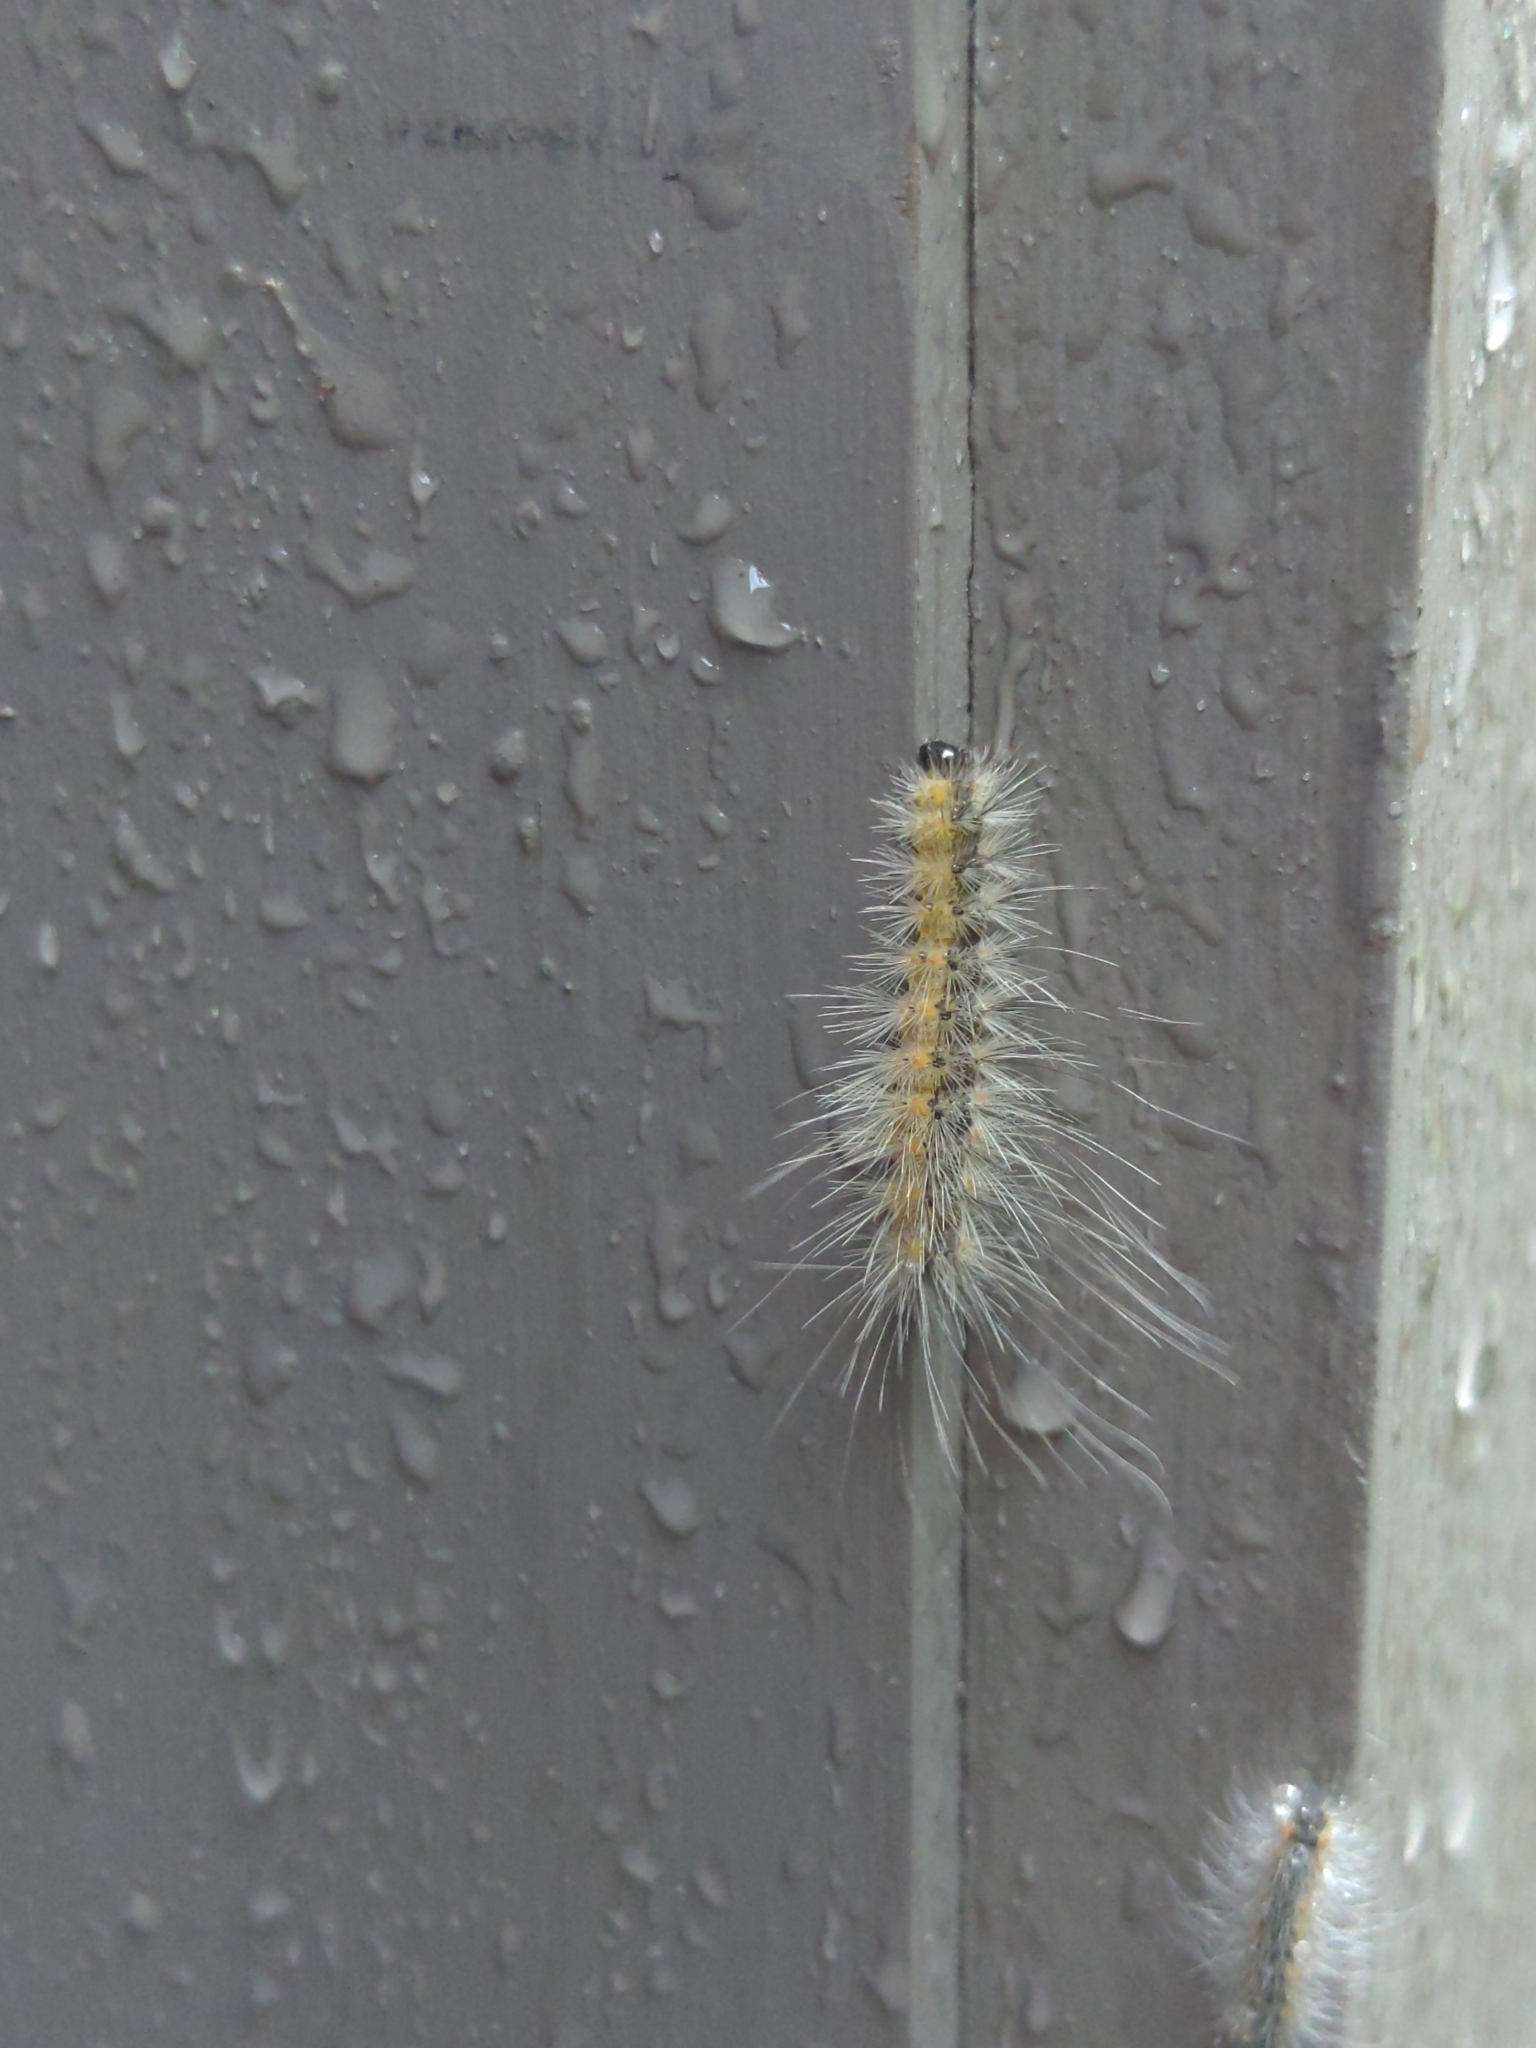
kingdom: Animalia
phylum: Arthropoda
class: Insecta
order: Lepidoptera
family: Erebidae
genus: Hyphantria
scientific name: Hyphantria cunea
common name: American white moth
